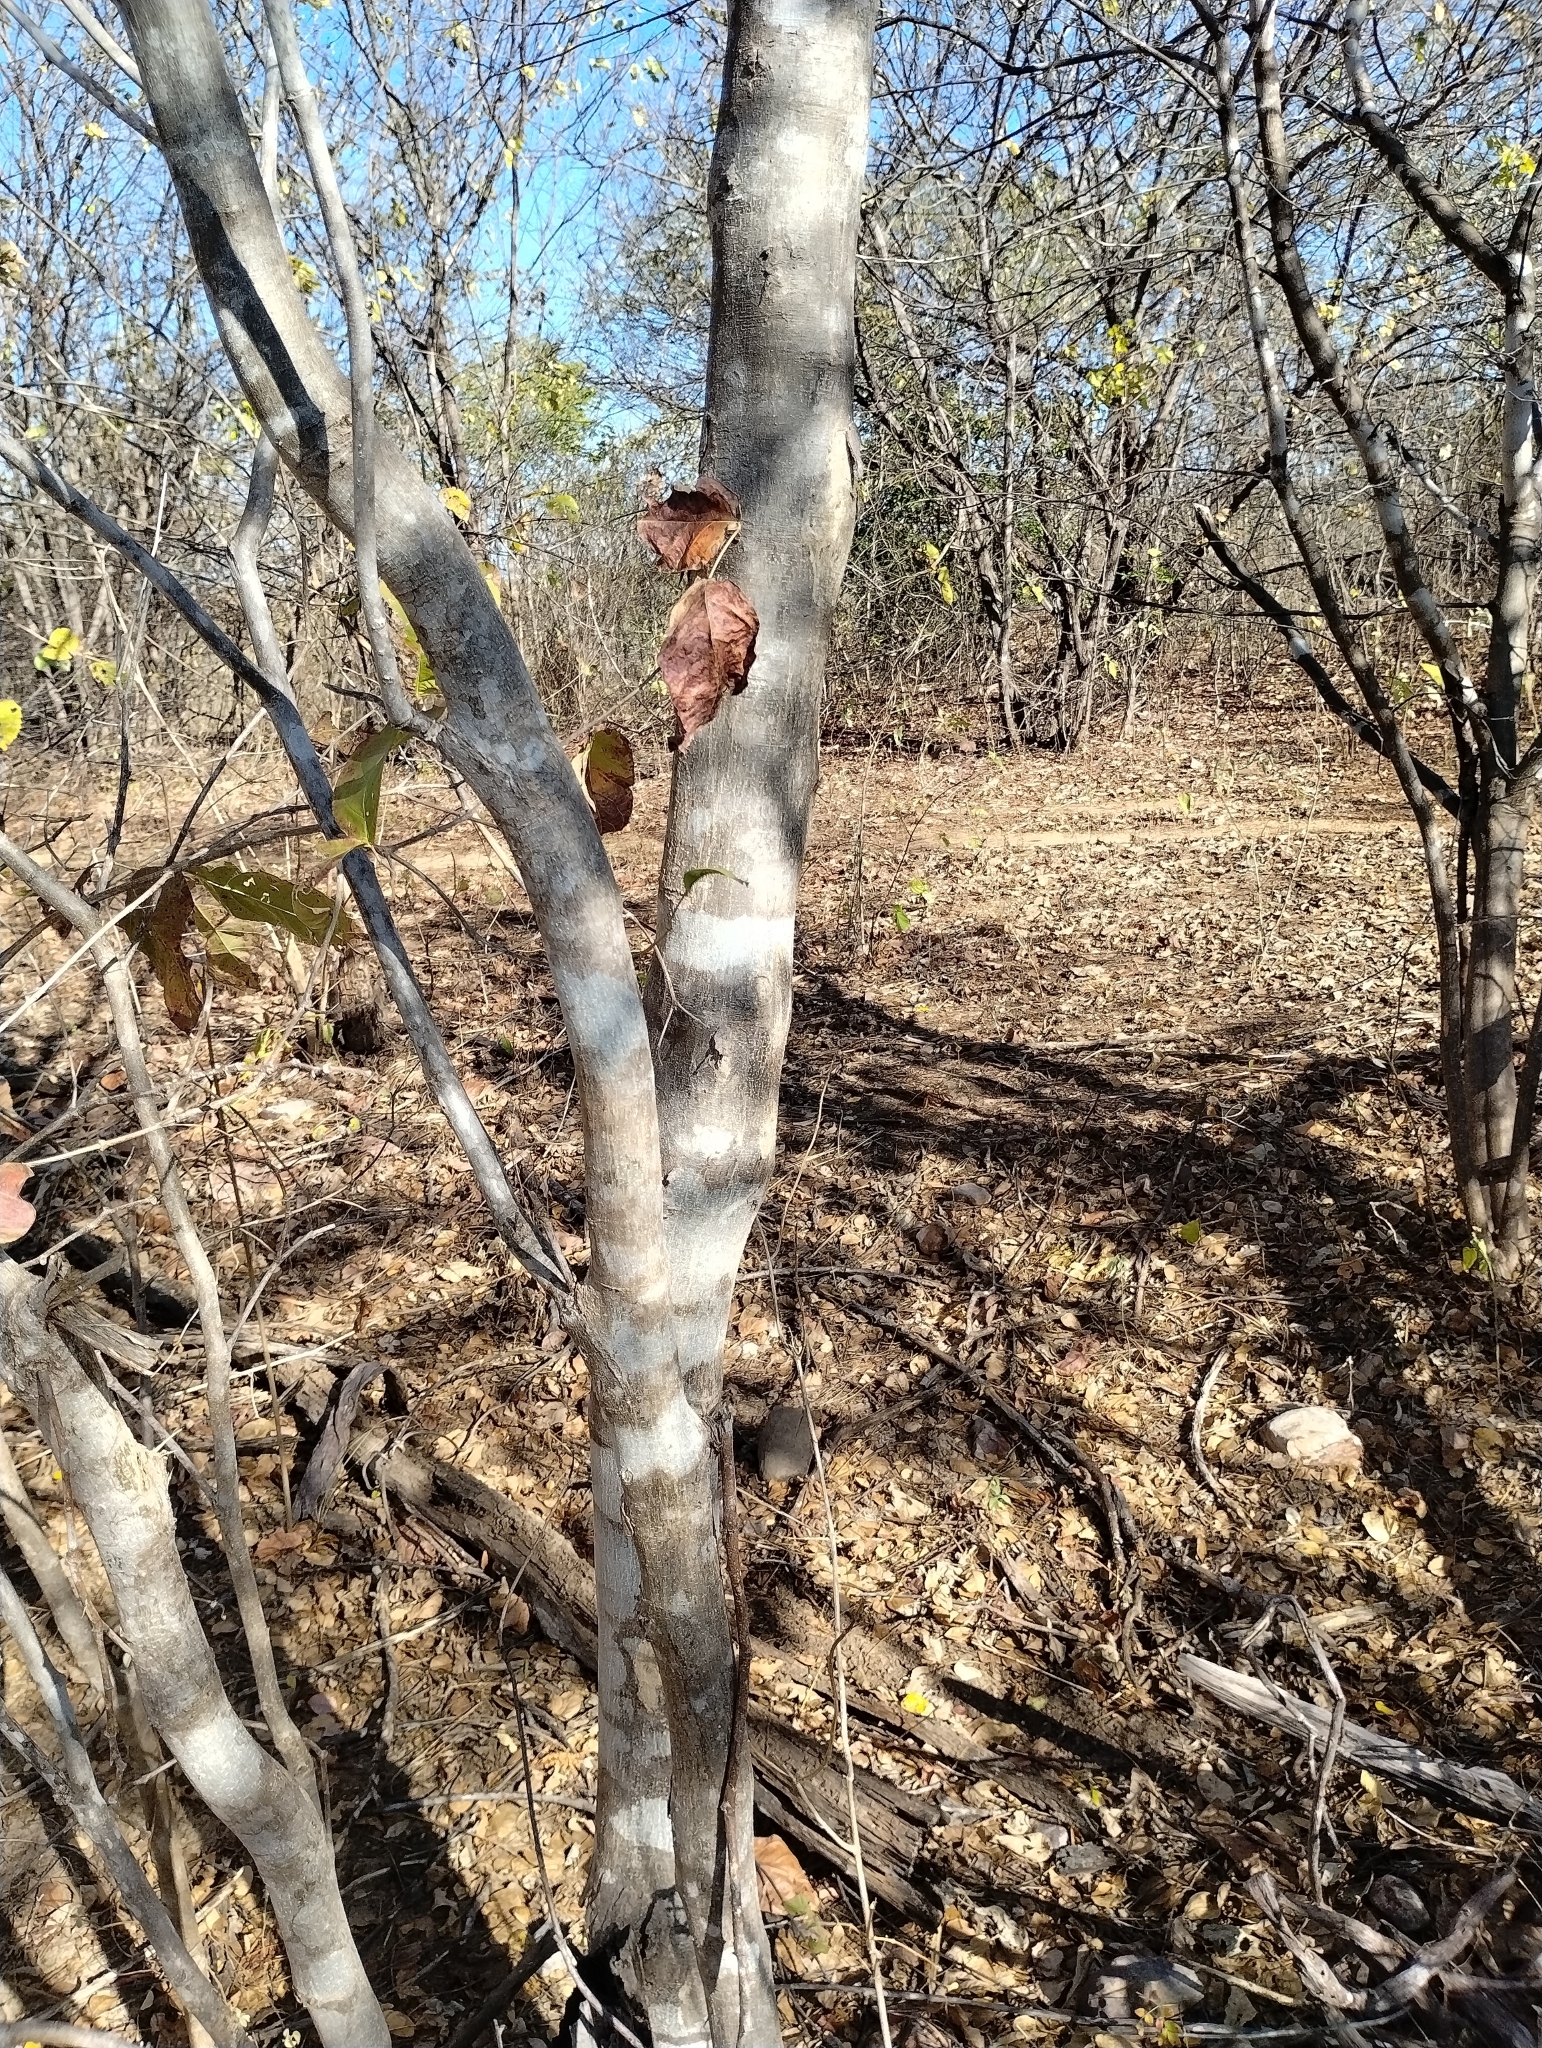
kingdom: Plantae
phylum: Tracheophyta
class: Magnoliopsida
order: Fabales
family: Fabaceae
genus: Cenostigma
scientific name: Cenostigma nordestinum
